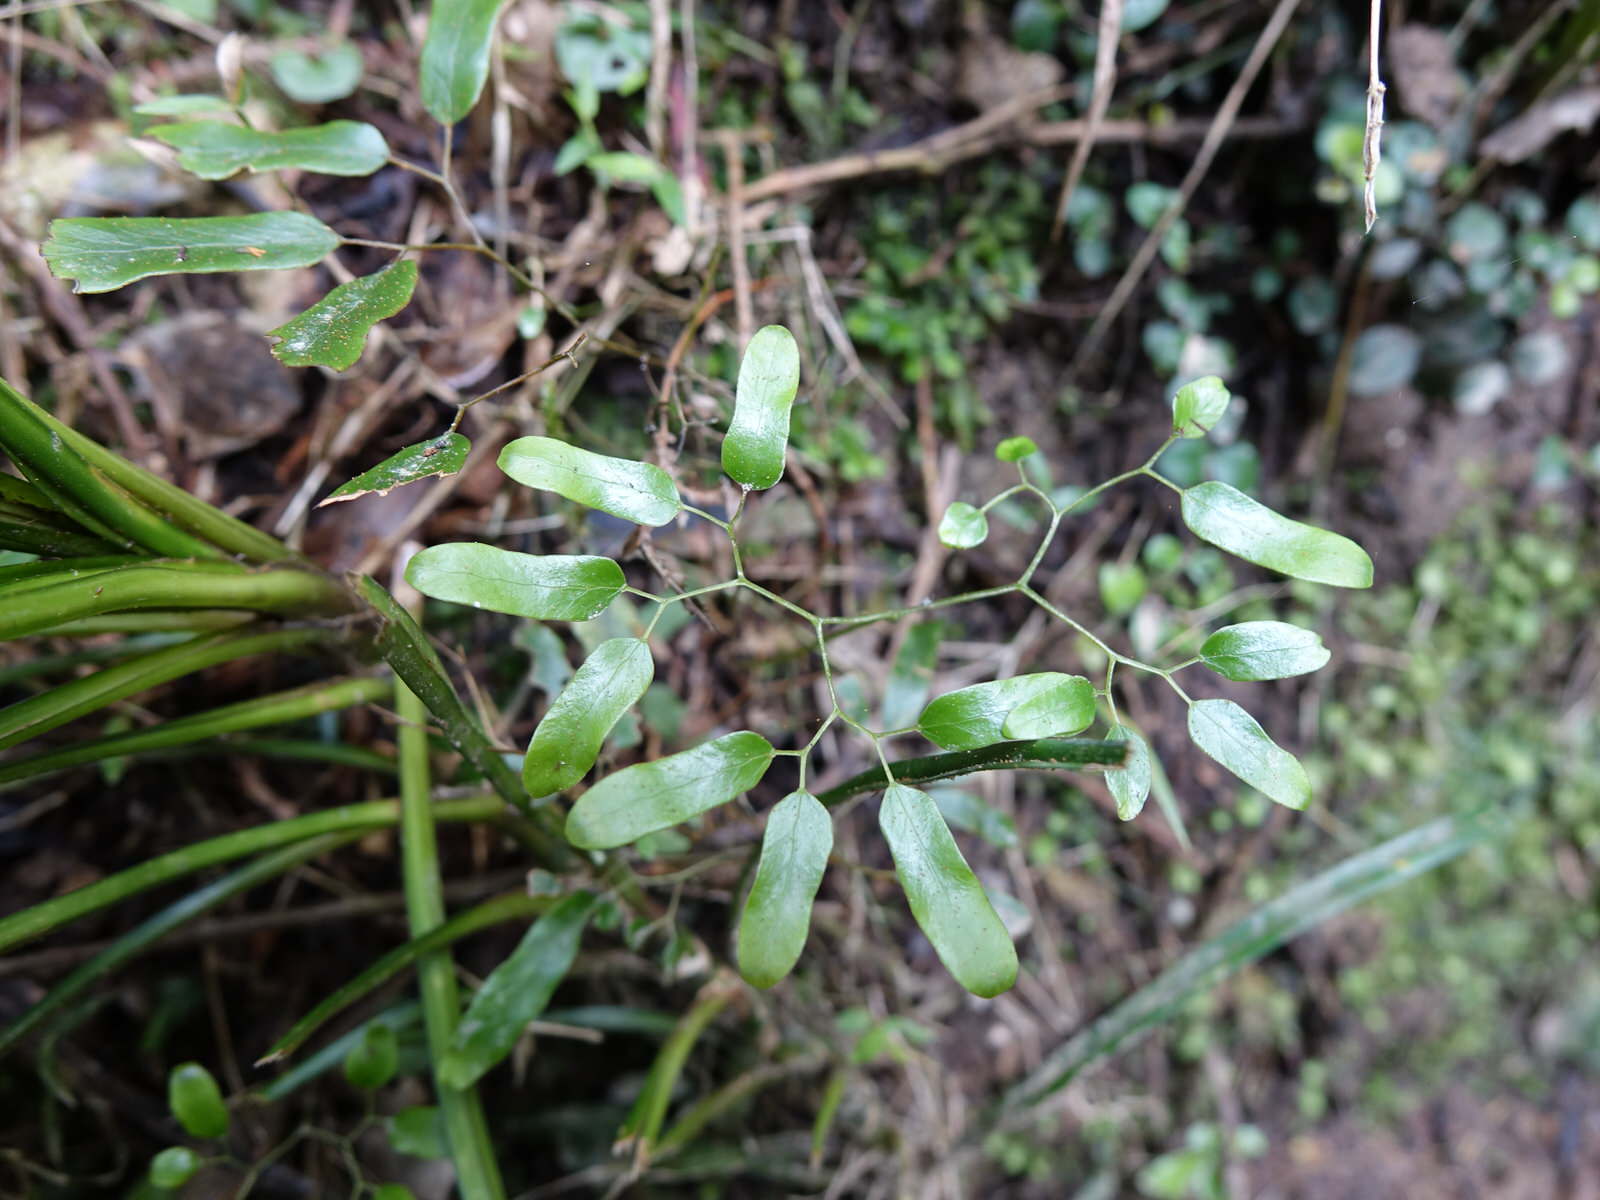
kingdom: Plantae
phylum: Tracheophyta
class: Polypodiopsida
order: Schizaeales
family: Lygodiaceae
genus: Lygodium
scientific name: Lygodium articulatum
